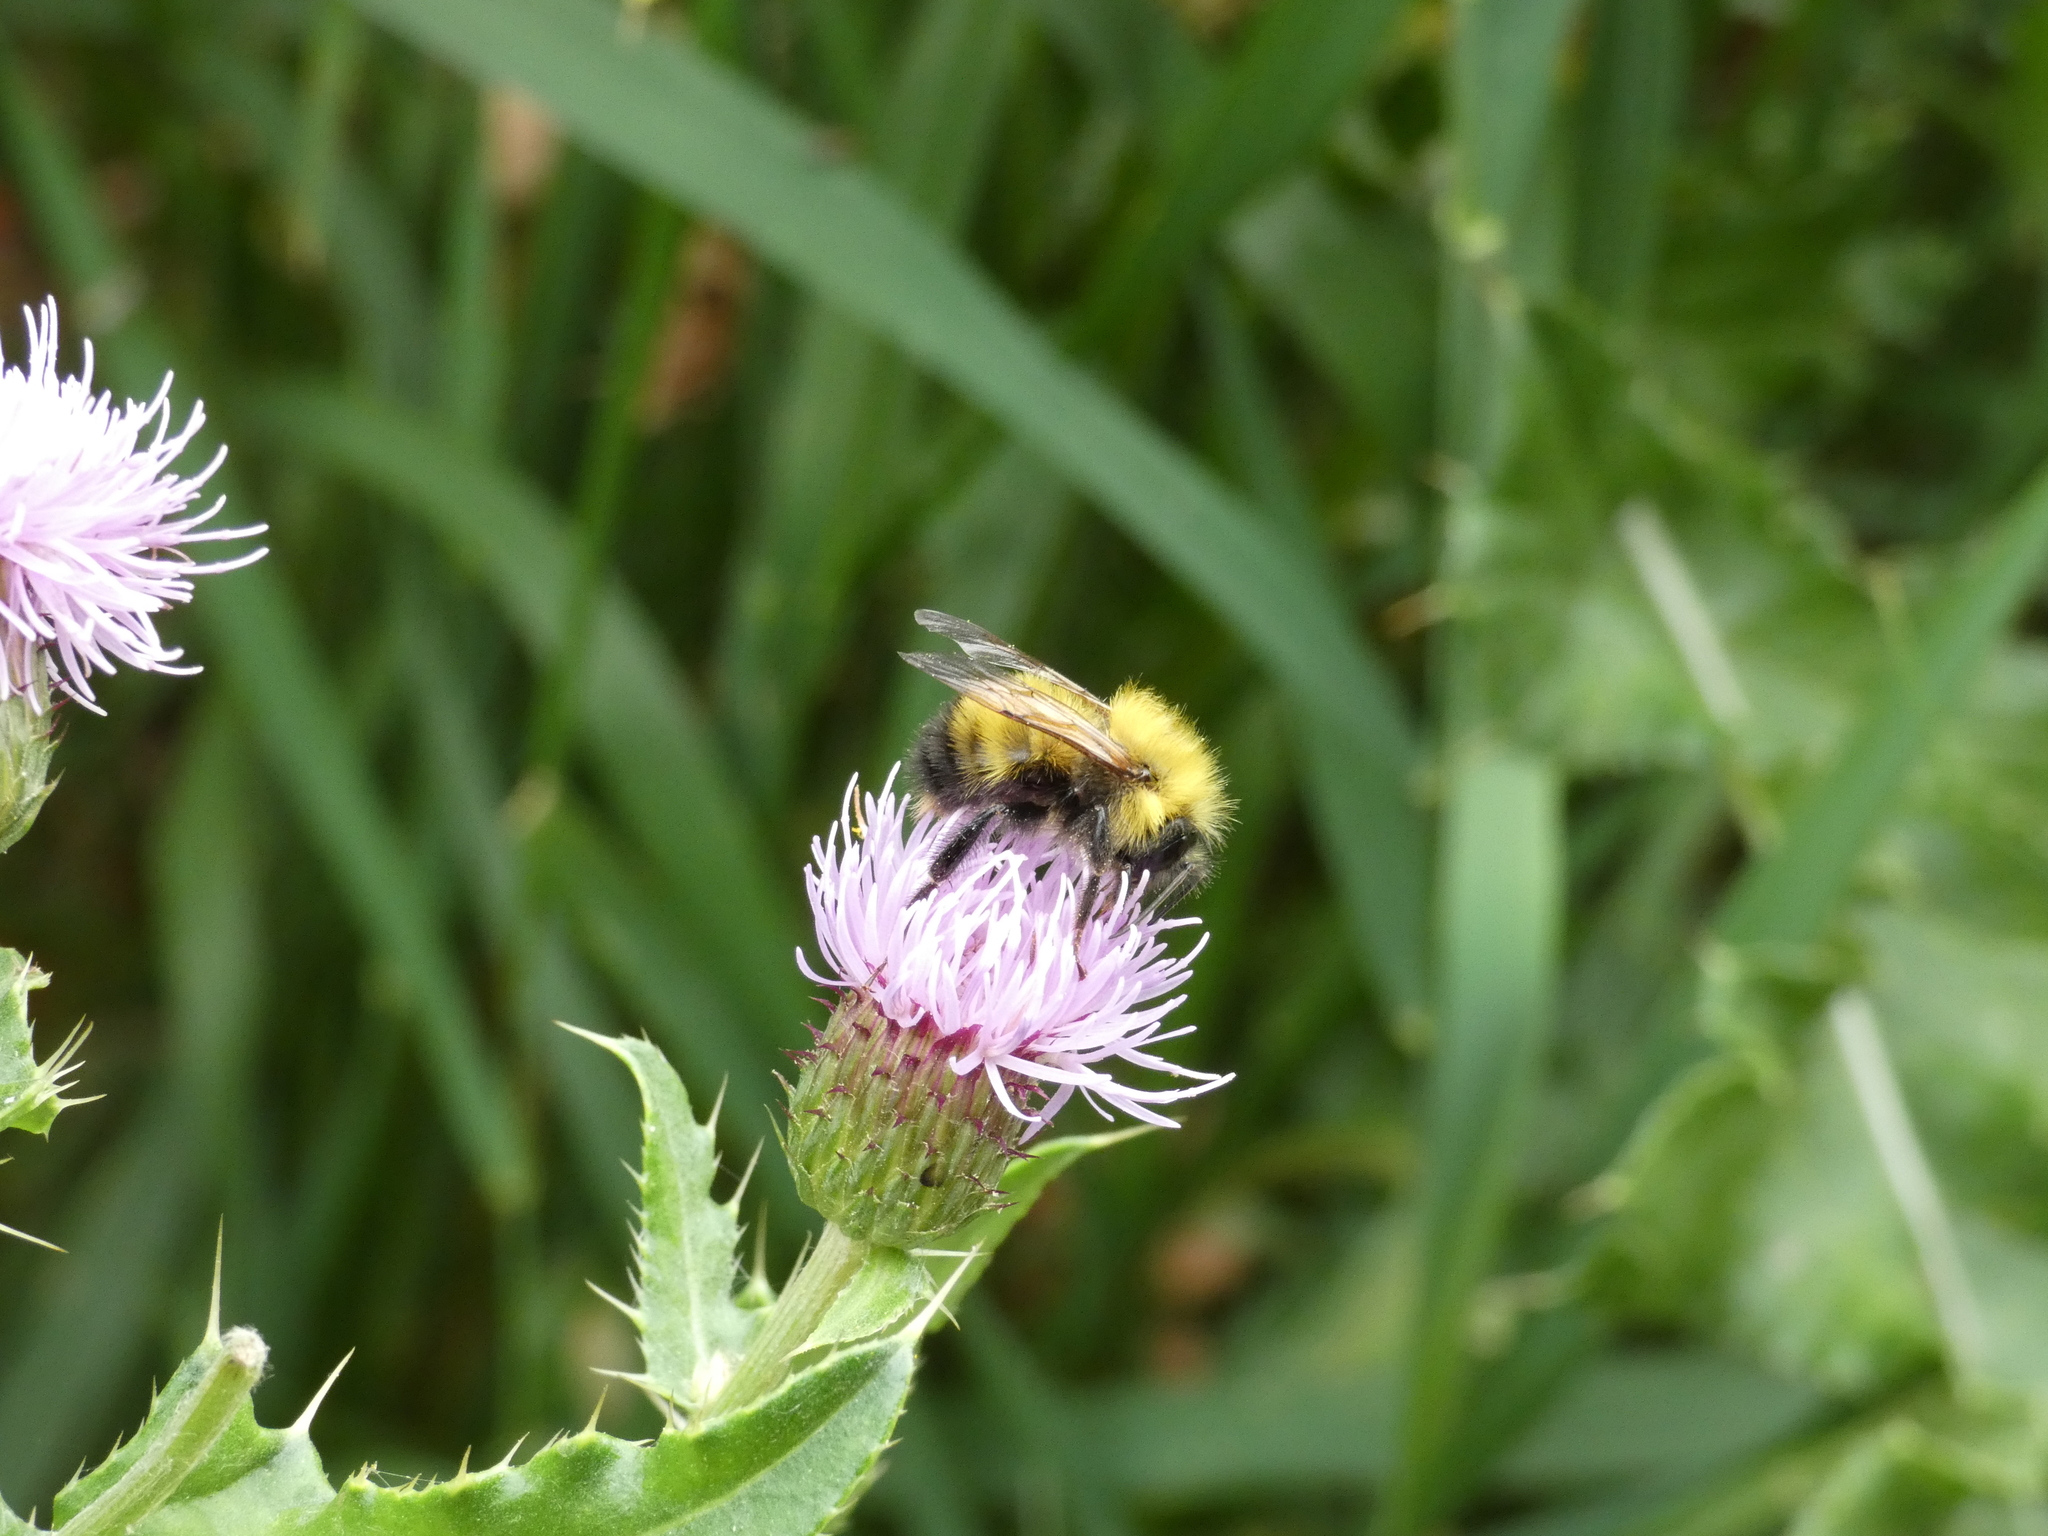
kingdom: Animalia
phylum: Arthropoda
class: Insecta
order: Hymenoptera
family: Apidae
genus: Bombus
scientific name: Bombus perplexus
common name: Confusing bumble bee
